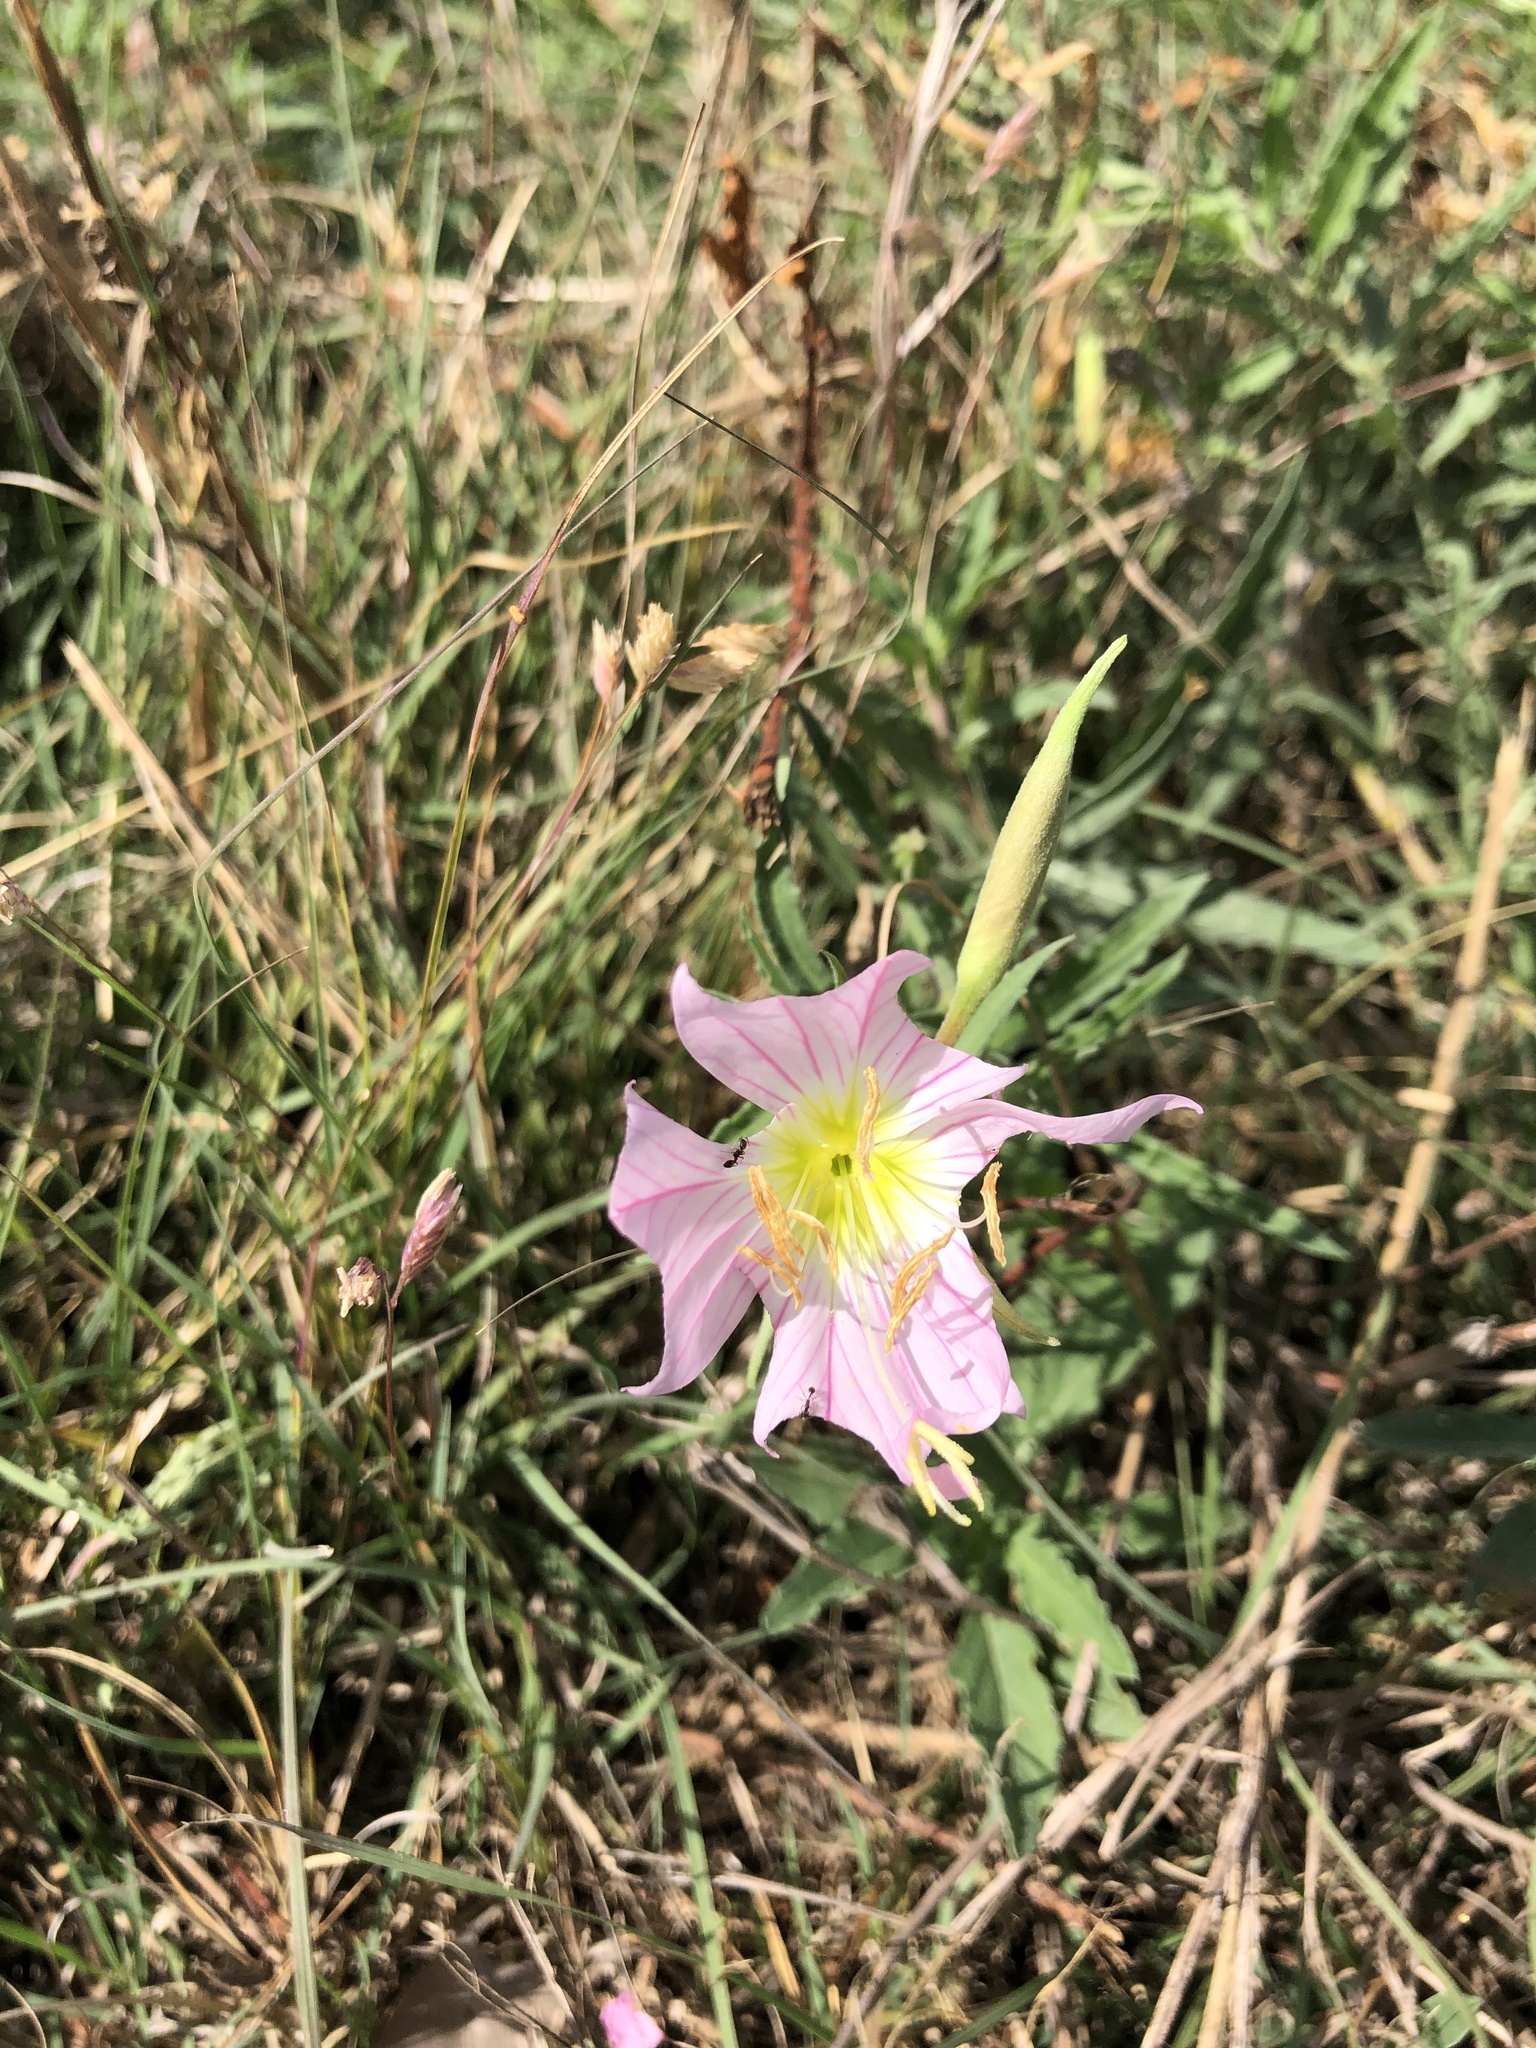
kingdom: Plantae
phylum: Tracheophyta
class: Magnoliopsida
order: Myrtales
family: Onagraceae
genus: Oenothera
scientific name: Oenothera speciosa
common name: White evening-primrose
